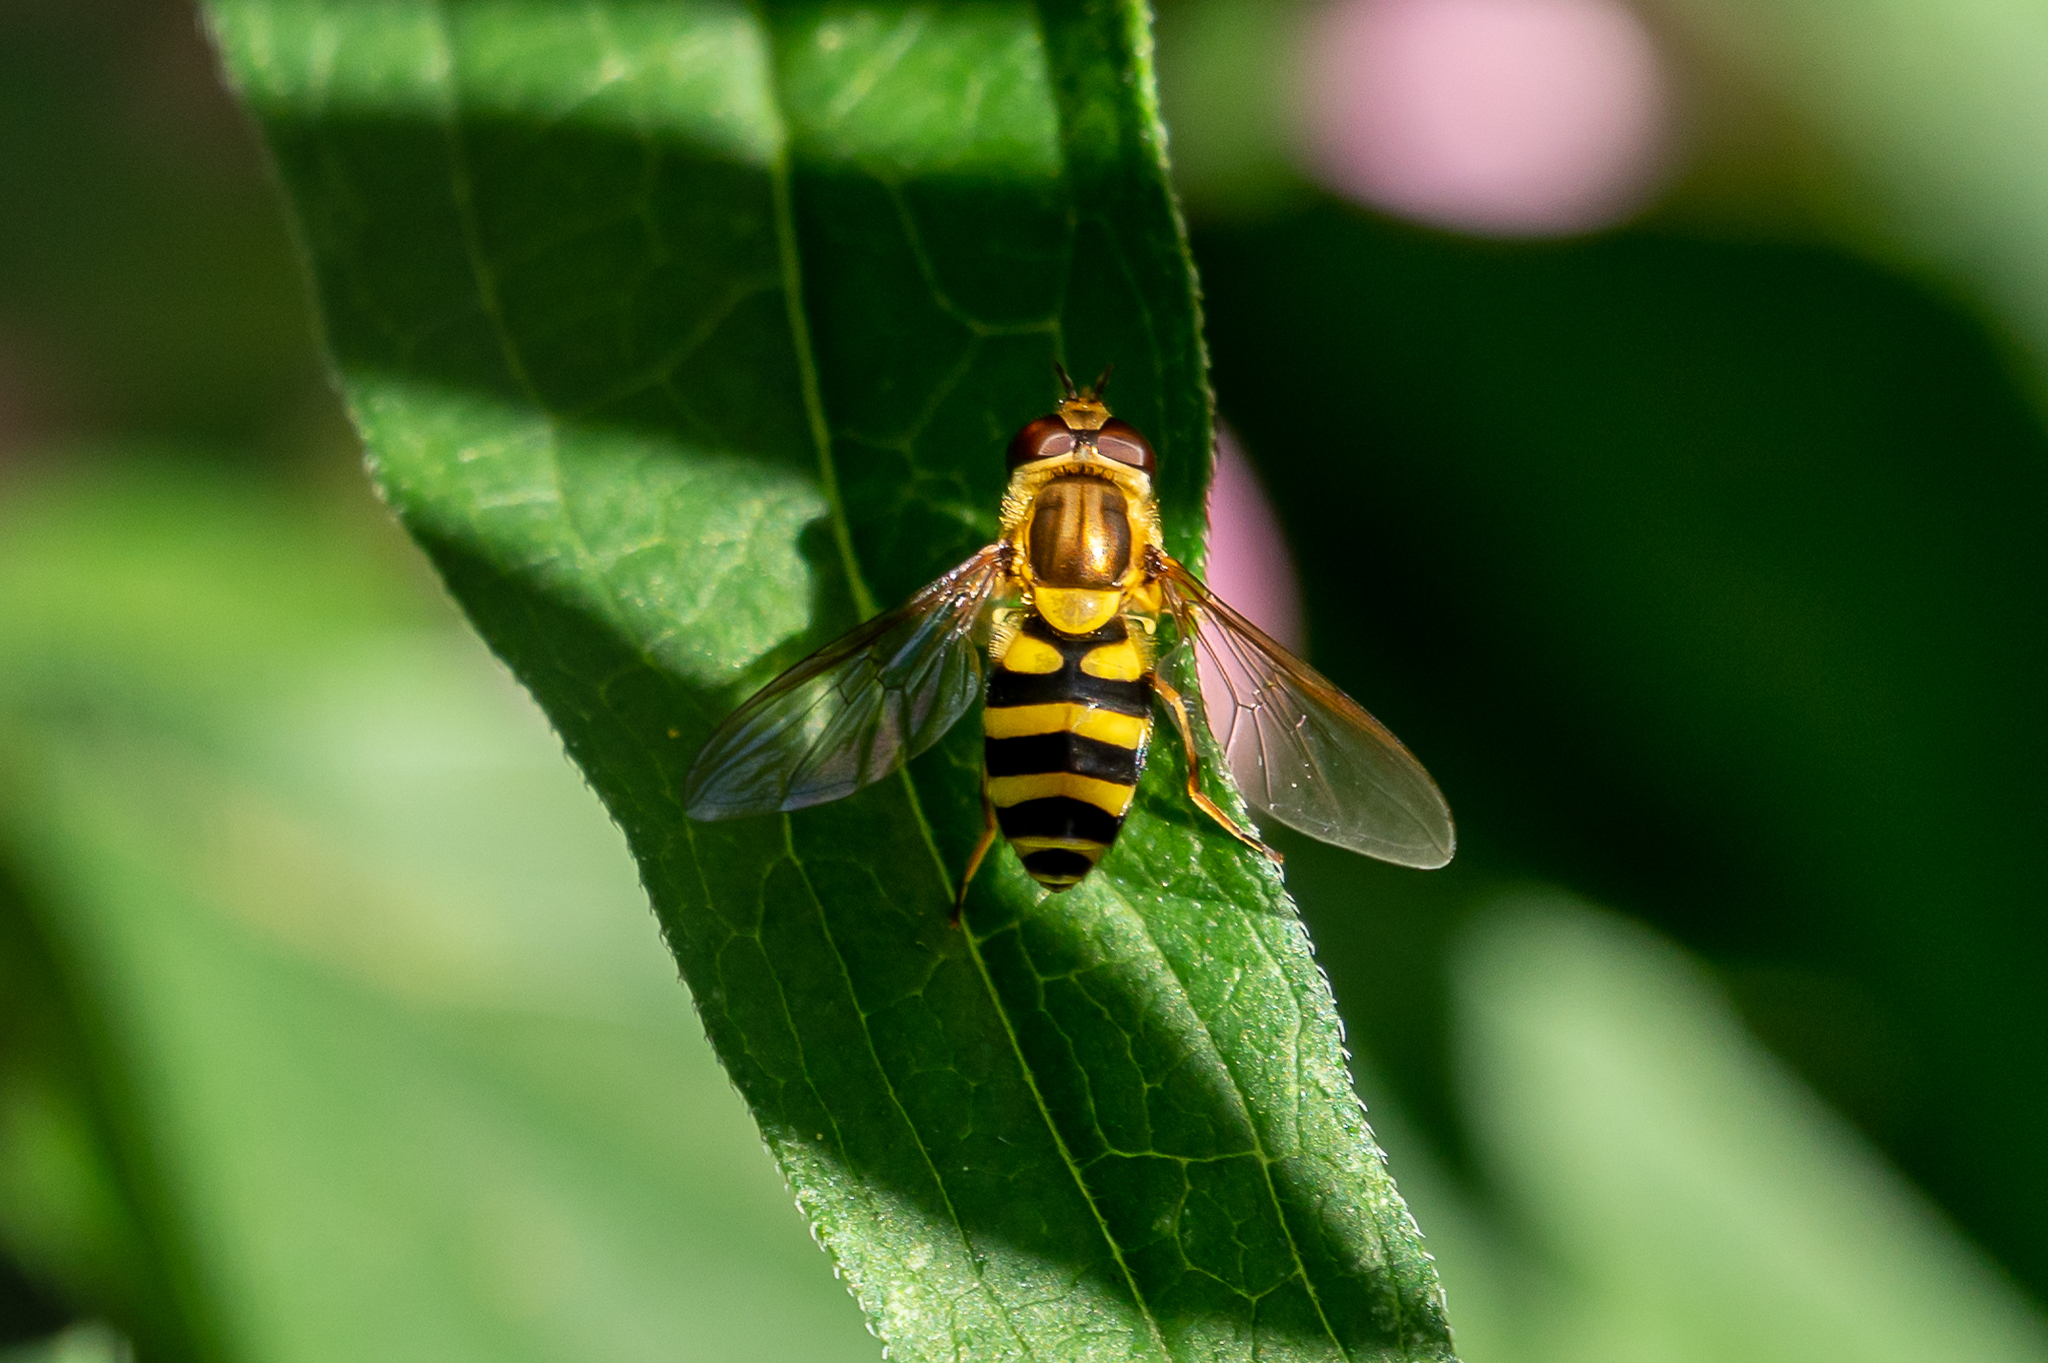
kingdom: Animalia
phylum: Arthropoda
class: Insecta
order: Diptera
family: Syrphidae
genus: Syrphus
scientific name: Syrphus knabi
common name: Eastern flower fly
